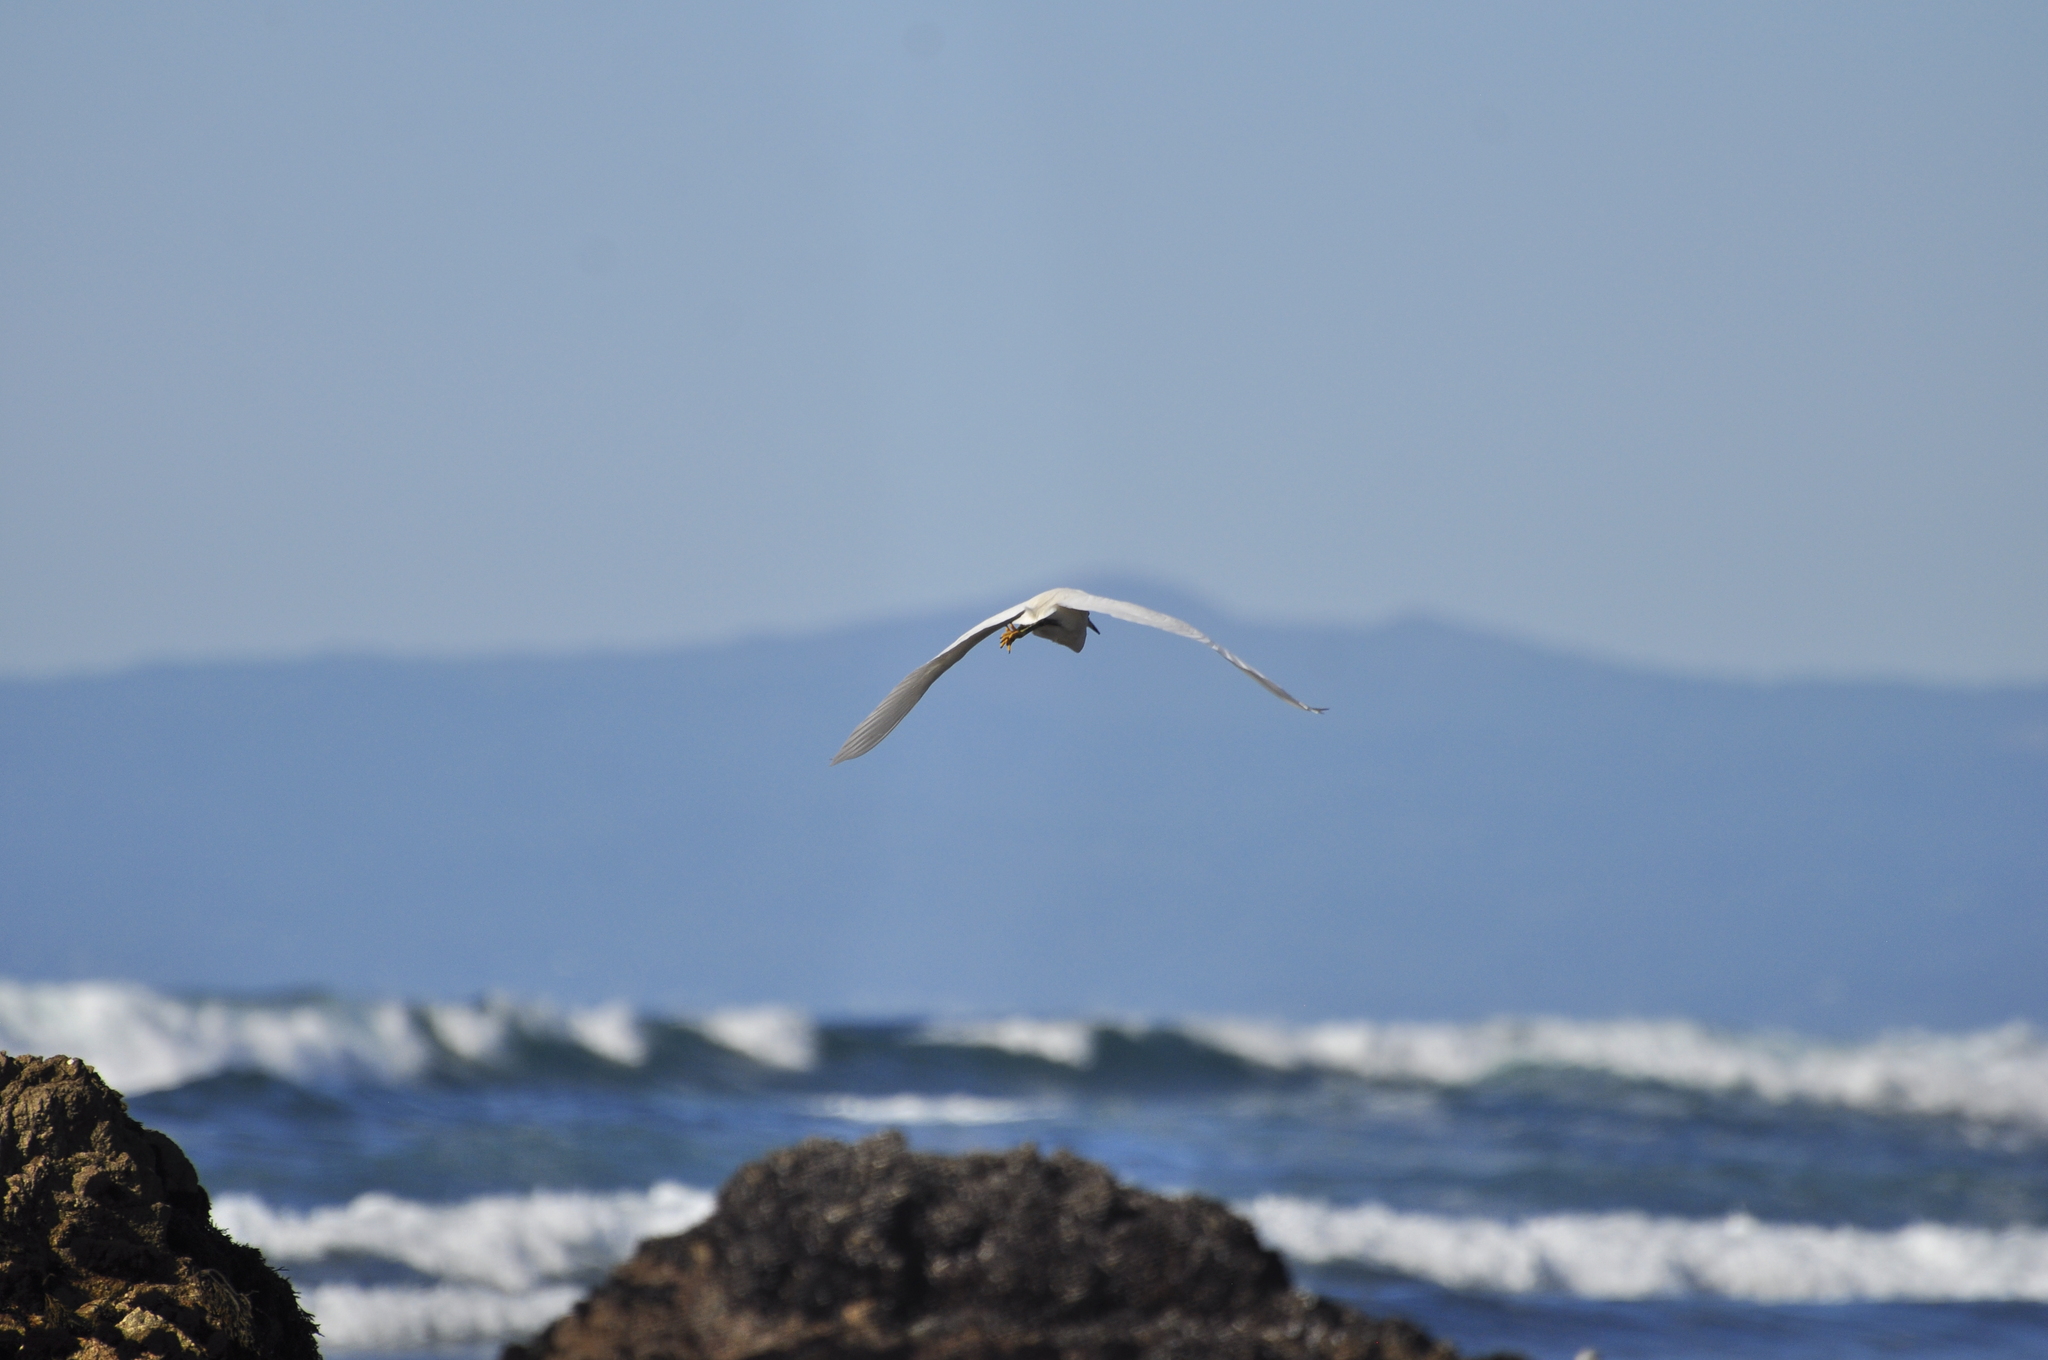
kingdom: Animalia
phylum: Chordata
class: Aves
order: Pelecaniformes
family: Ardeidae
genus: Egretta
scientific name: Egretta thula
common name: Snowy egret
